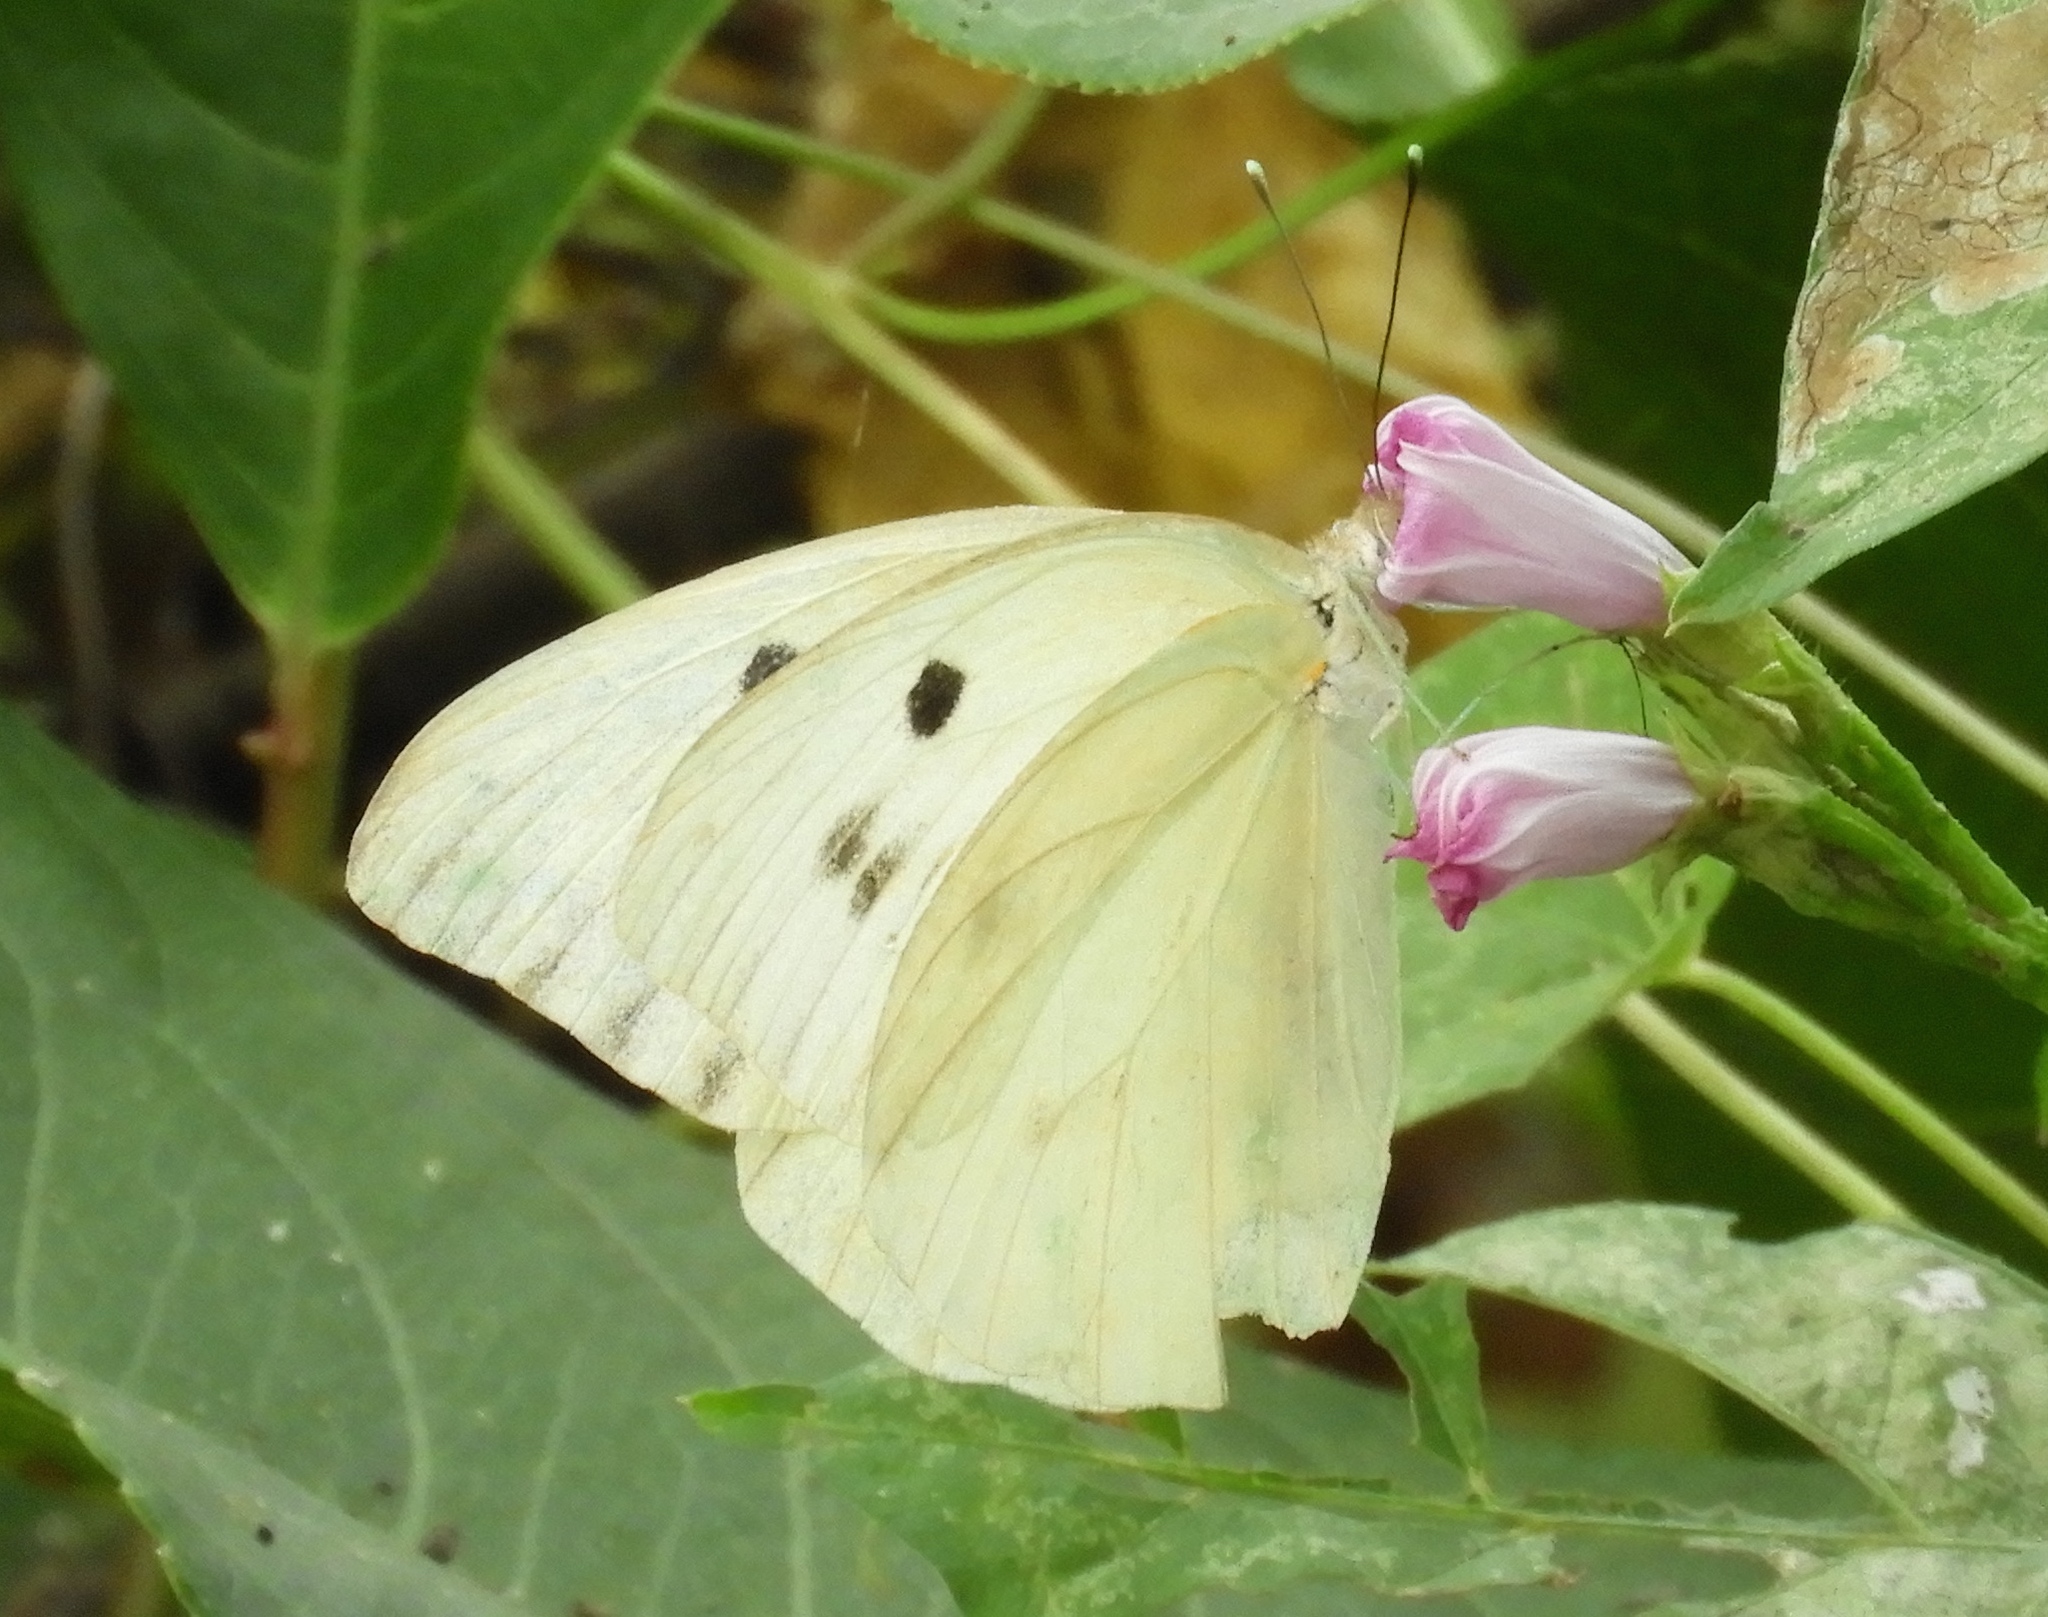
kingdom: Animalia
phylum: Arthropoda
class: Insecta
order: Lepidoptera
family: Pieridae
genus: Ganyra
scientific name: Ganyra josephina
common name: Giant white
